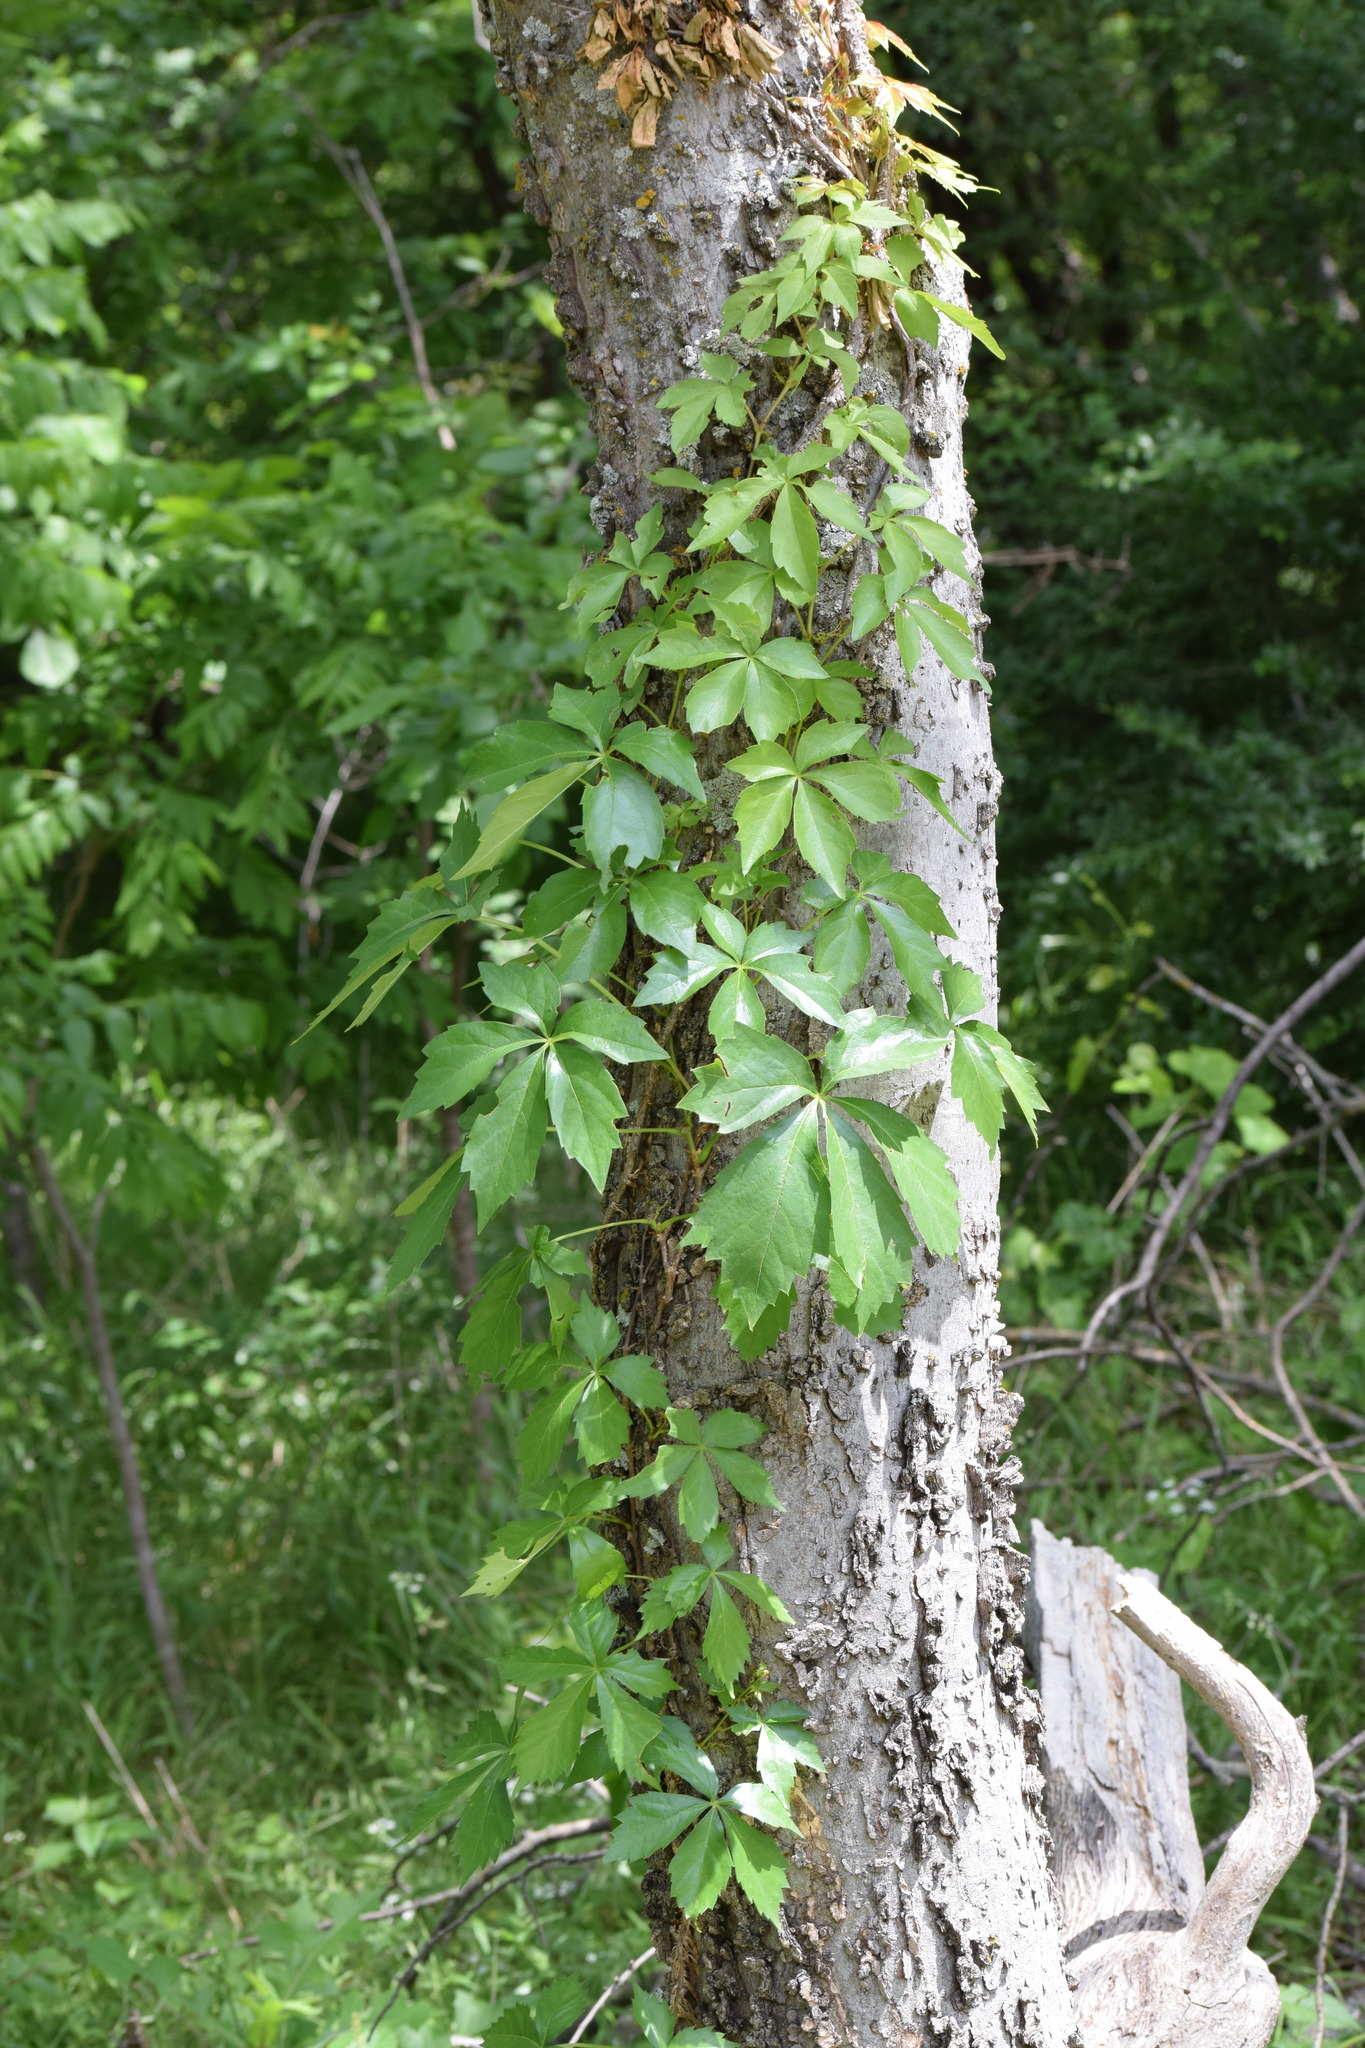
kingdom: Plantae
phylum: Tracheophyta
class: Magnoliopsida
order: Vitales
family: Vitaceae
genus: Parthenocissus
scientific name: Parthenocissus quinquefolia
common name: Virginia-creeper
